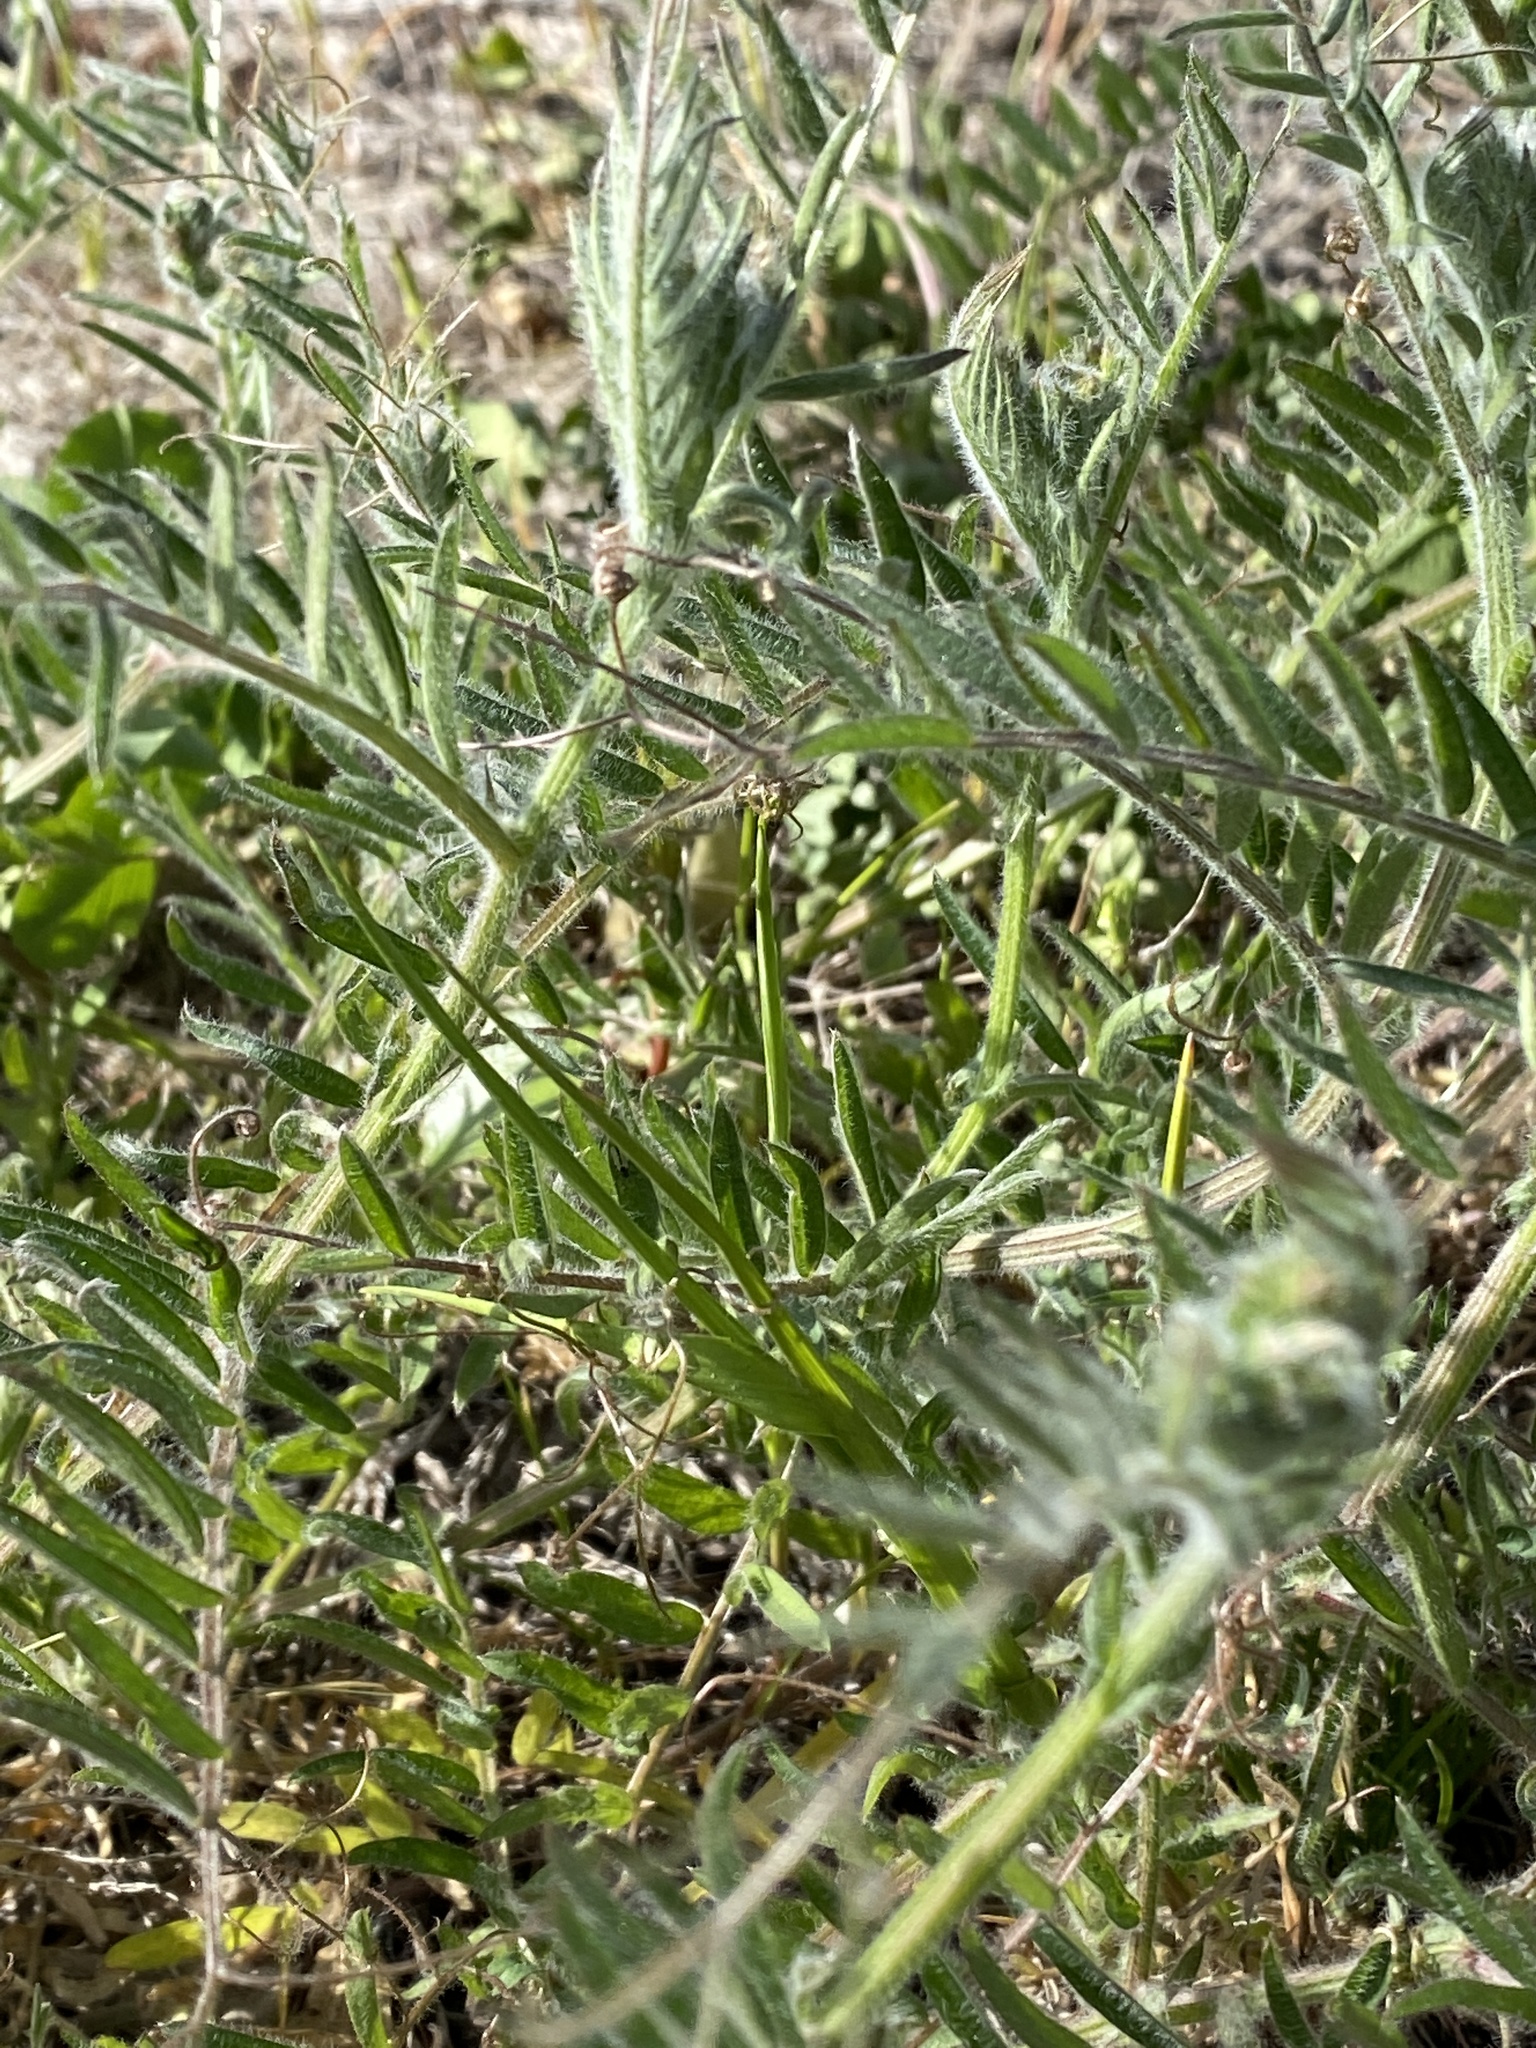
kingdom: Plantae
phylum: Tracheophyta
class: Magnoliopsida
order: Fabales
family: Fabaceae
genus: Vicia
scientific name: Vicia villosa
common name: Fodder vetch
